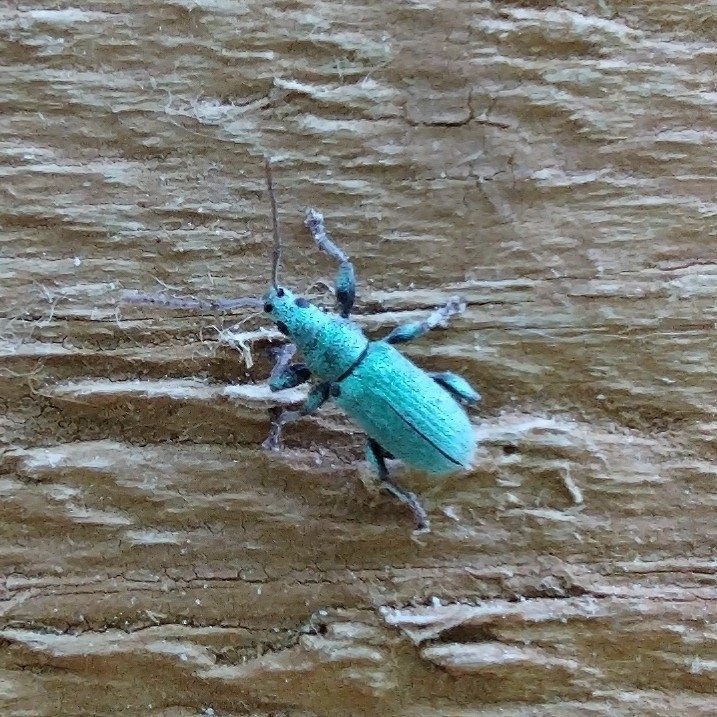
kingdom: Animalia
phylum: Arthropoda
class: Insecta
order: Coleoptera
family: Curculionidae
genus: Phyllobius
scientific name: Phyllobius argentatus
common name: Silver-green leaf weevil
